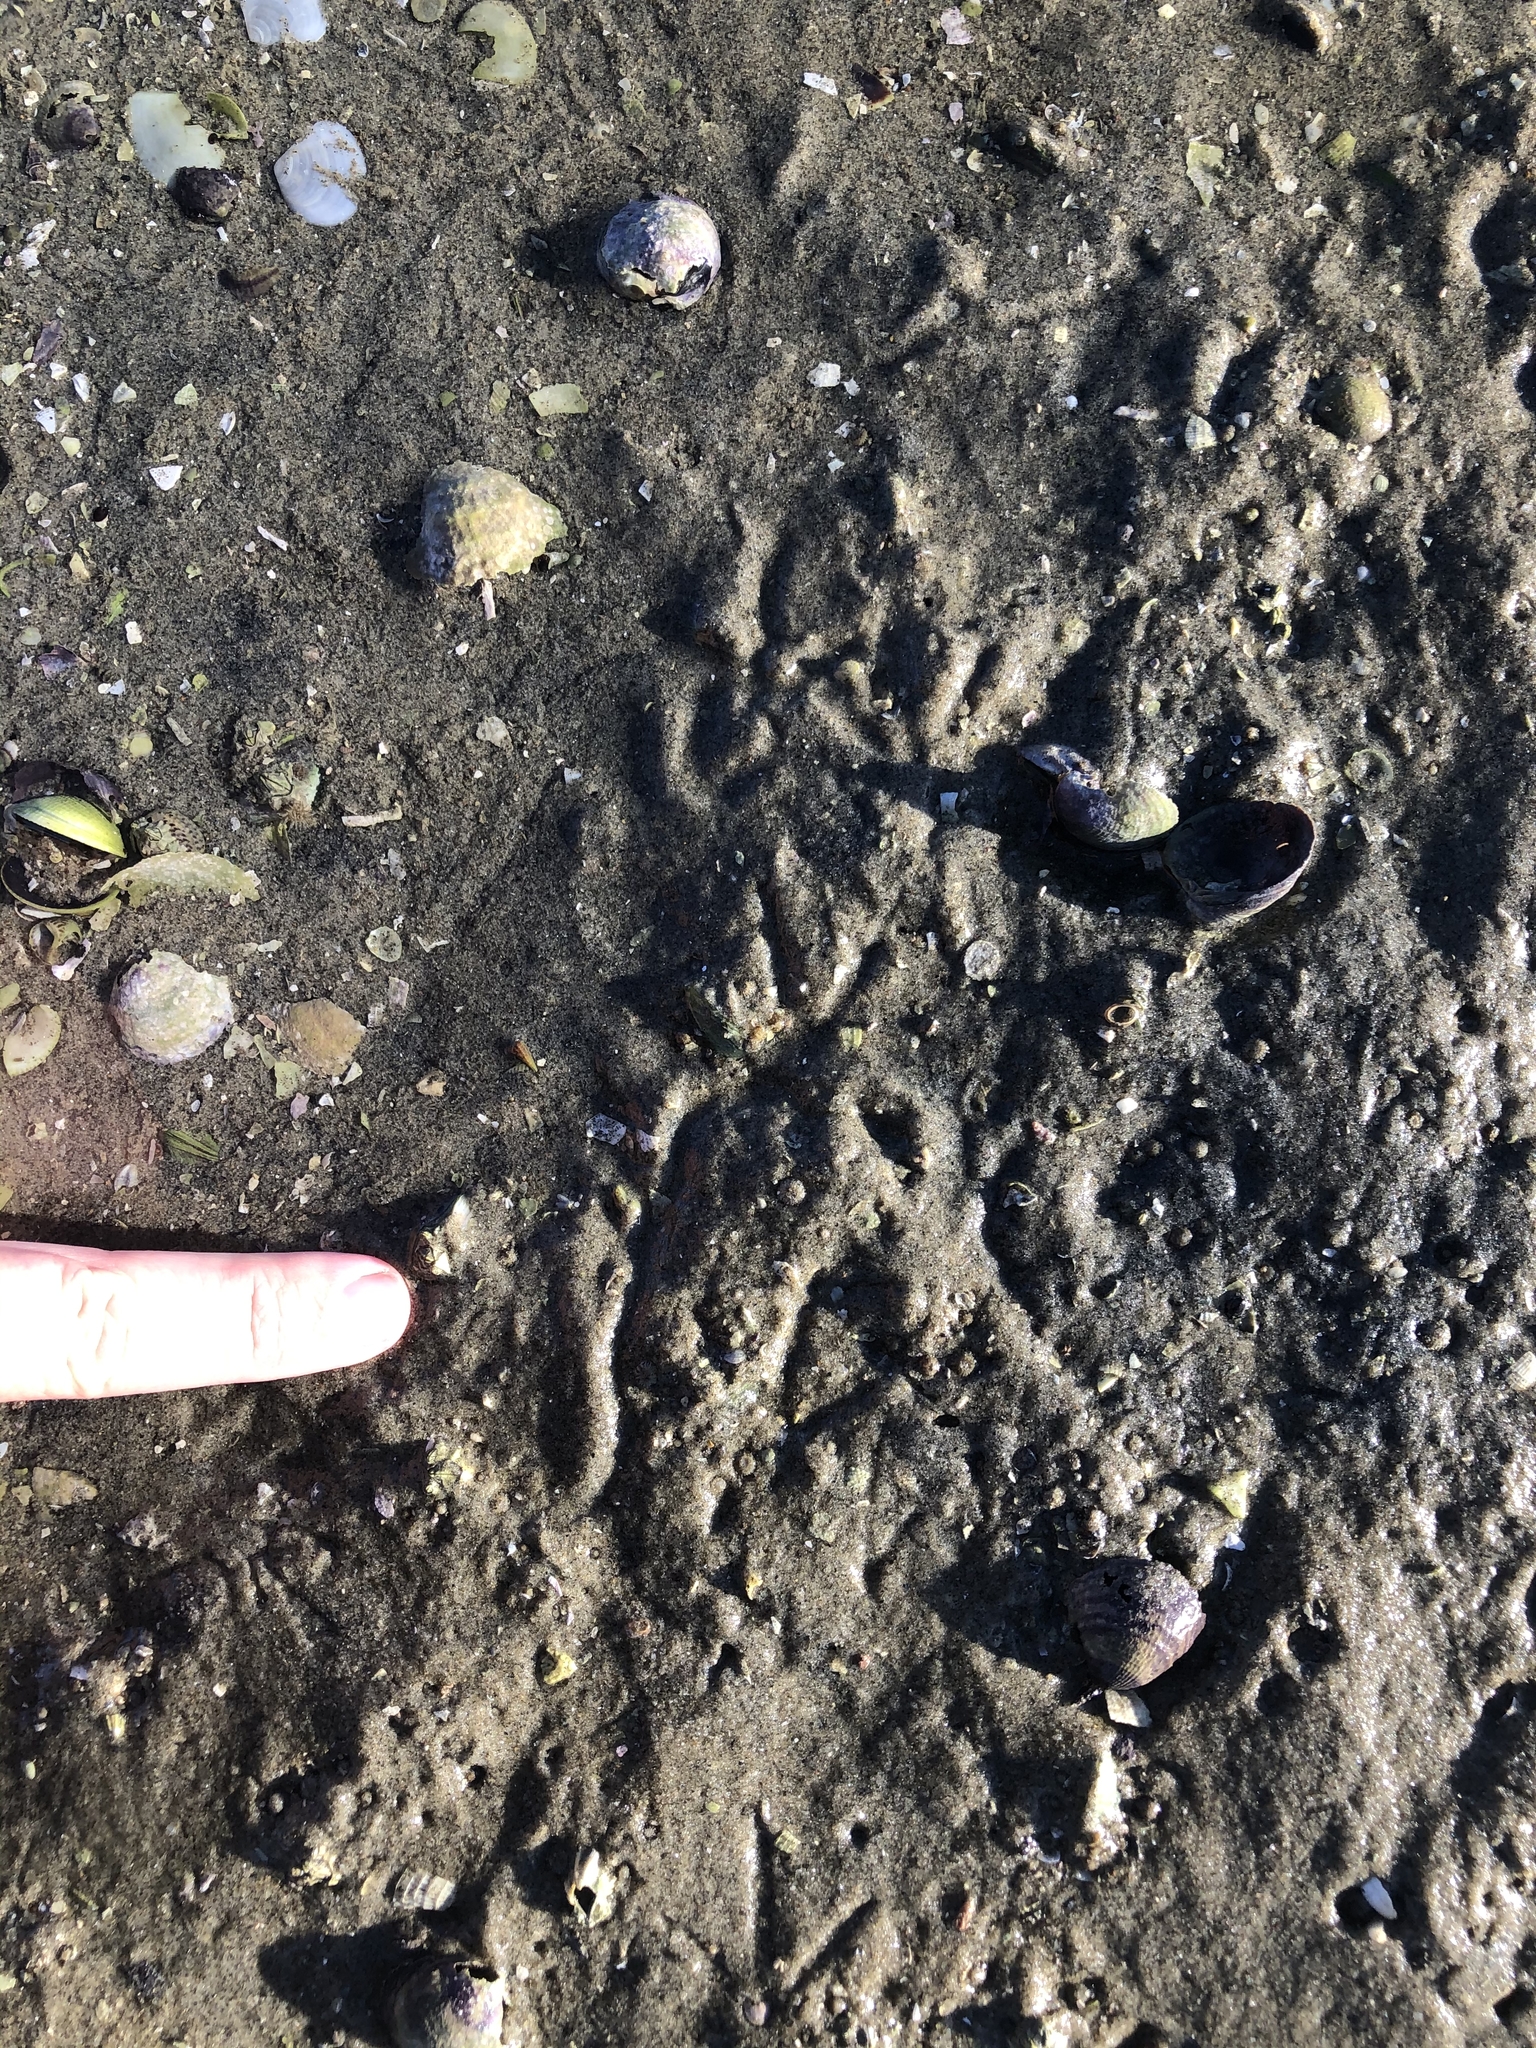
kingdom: Animalia
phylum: Chordata
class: Aves
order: Charadriiformes
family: Scolopacidae
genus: Arenaria
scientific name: Arenaria interpres
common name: Ruddy turnstone
